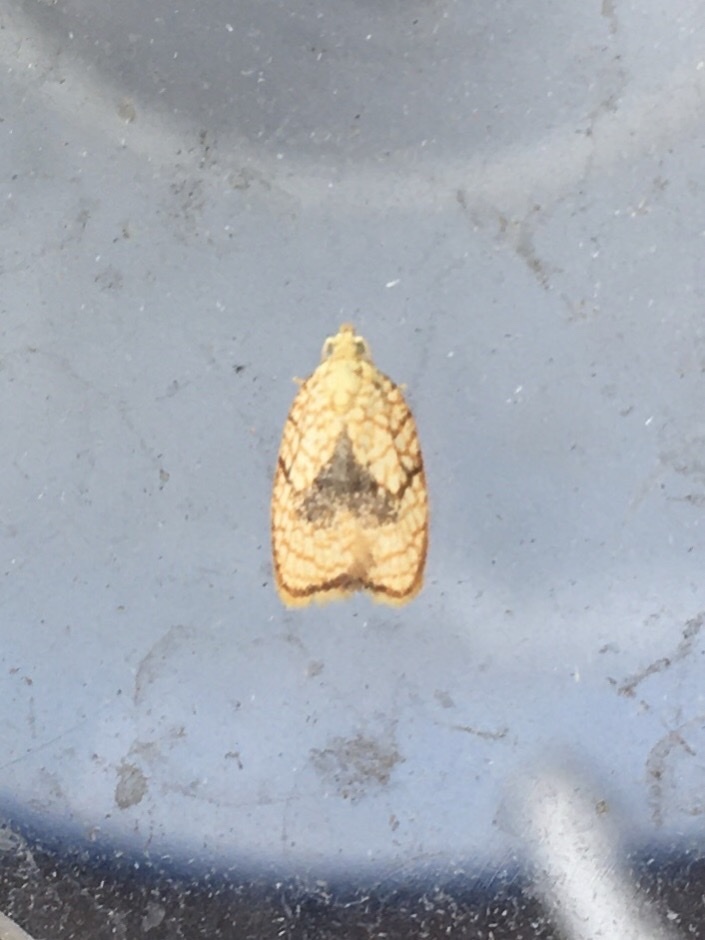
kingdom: Animalia
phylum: Arthropoda
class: Insecta
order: Lepidoptera
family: Tortricidae
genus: Acleris
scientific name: Acleris forsskaleana
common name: Maple button
